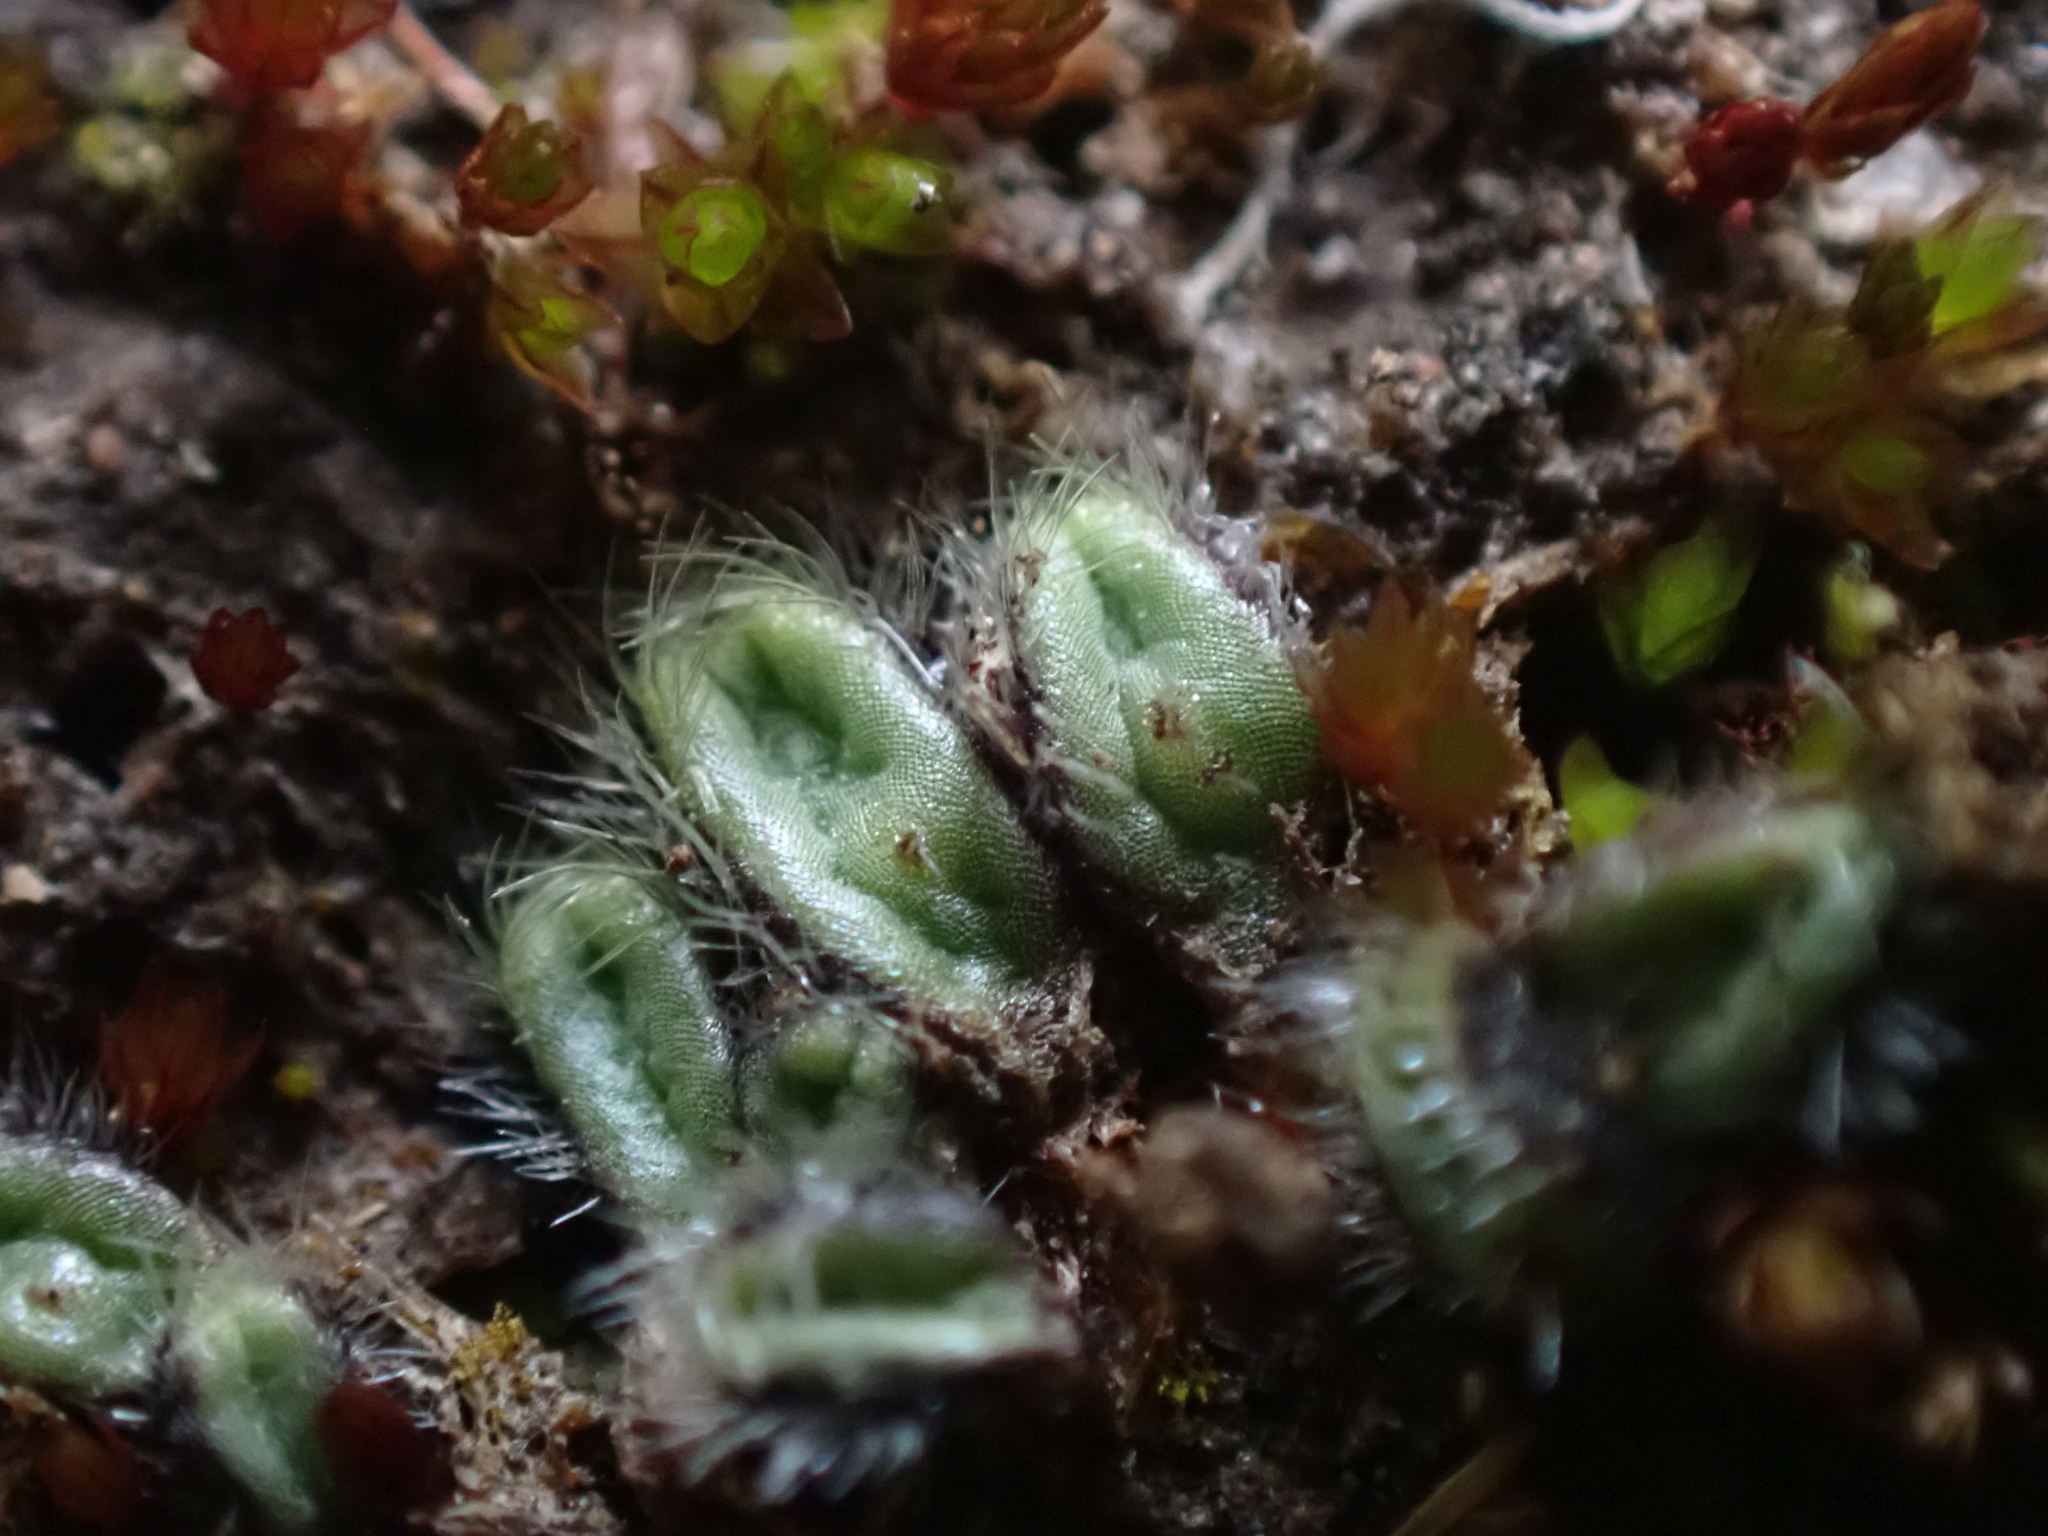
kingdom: Plantae
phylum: Marchantiophyta
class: Marchantiopsida
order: Marchantiales
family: Ricciaceae
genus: Riccia
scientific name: Riccia trichocarpa
